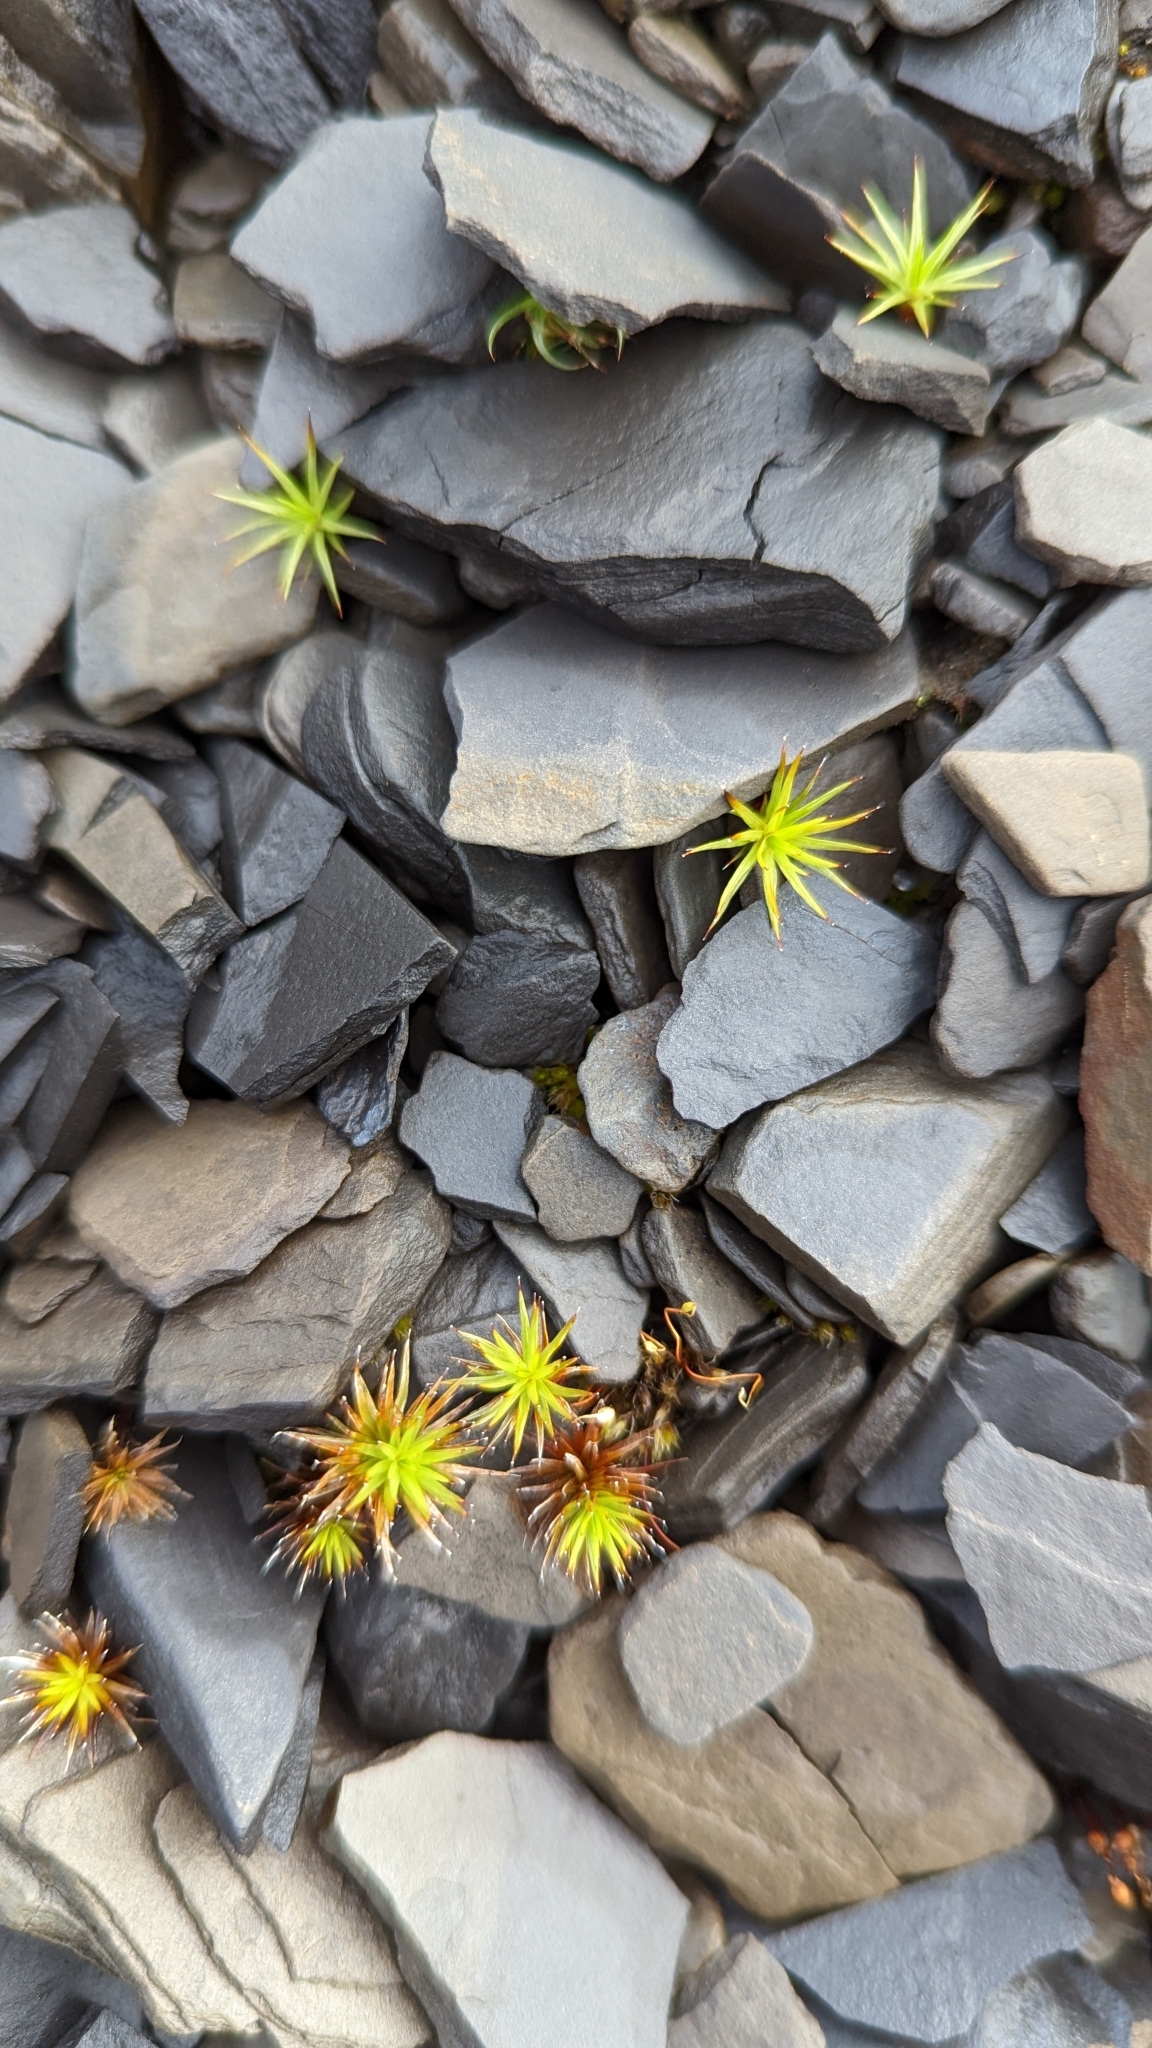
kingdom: Plantae
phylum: Bryophyta
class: Polytrichopsida
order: Polytrichales
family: Polytrichaceae
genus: Polytrichum
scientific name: Polytrichum juniperinum
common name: Juniper haircap moss
